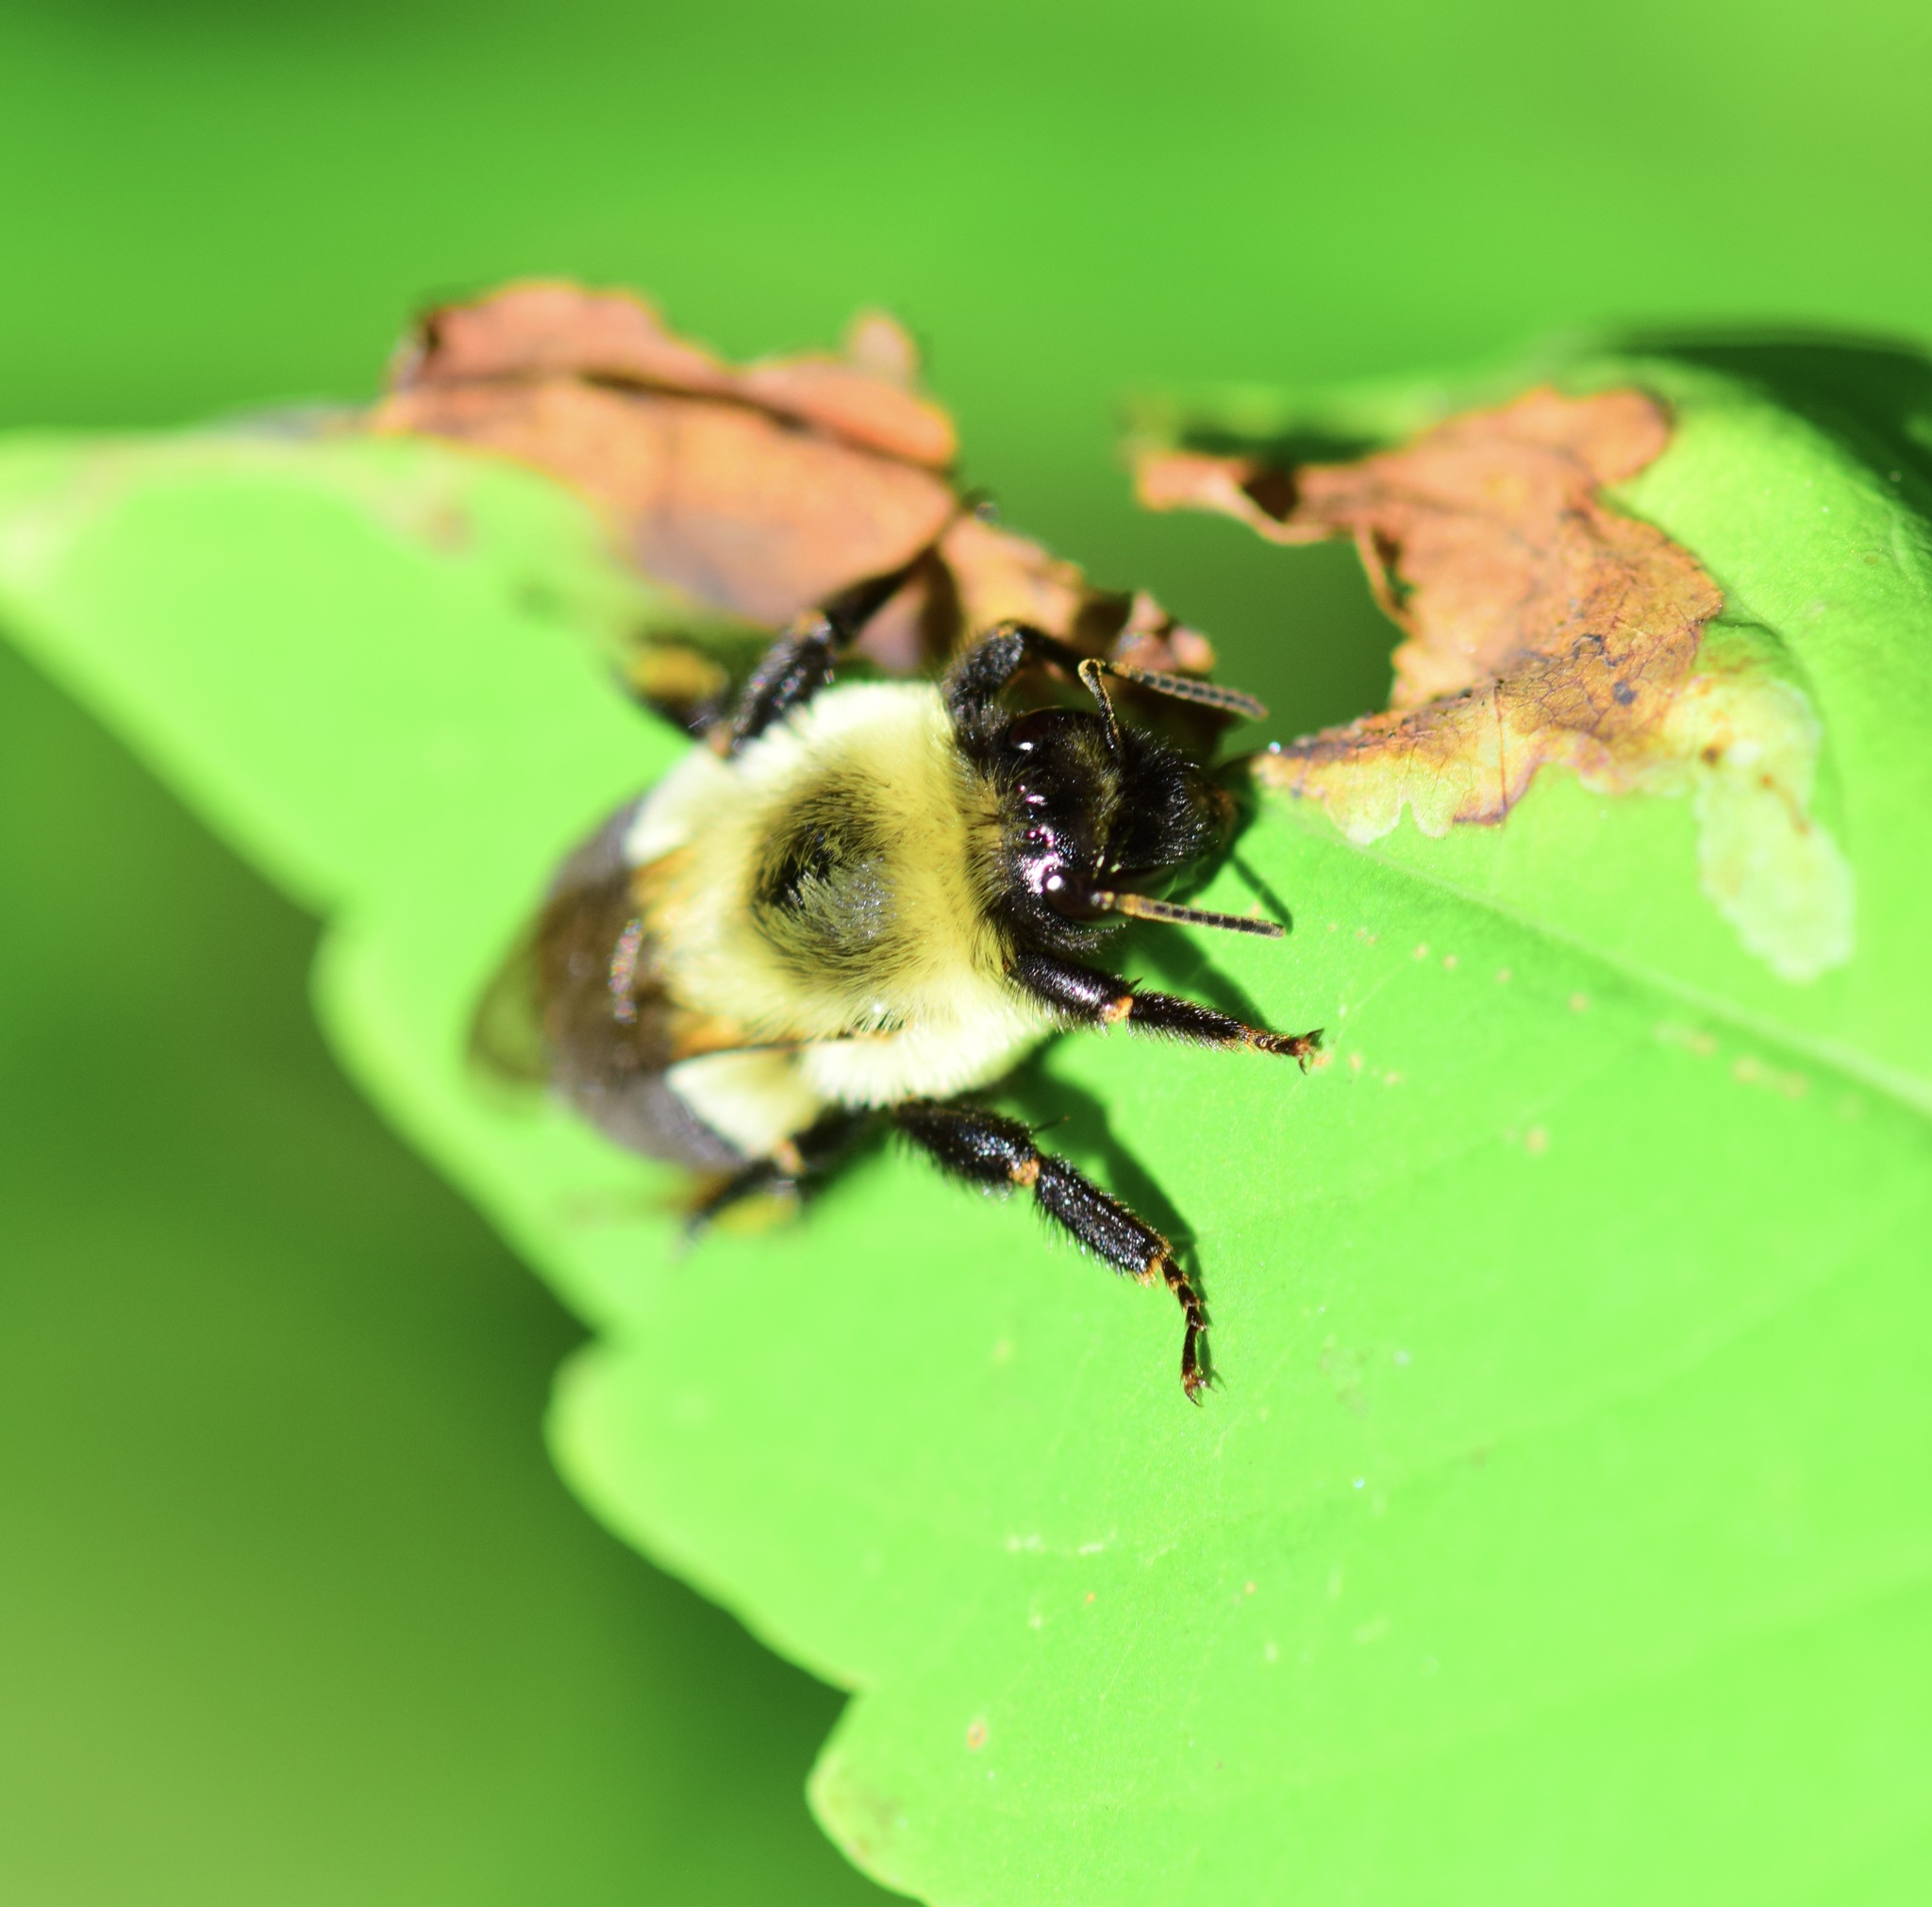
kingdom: Animalia
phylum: Arthropoda
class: Insecta
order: Hymenoptera
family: Apidae
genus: Bombus
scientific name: Bombus impatiens
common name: Common eastern bumble bee
